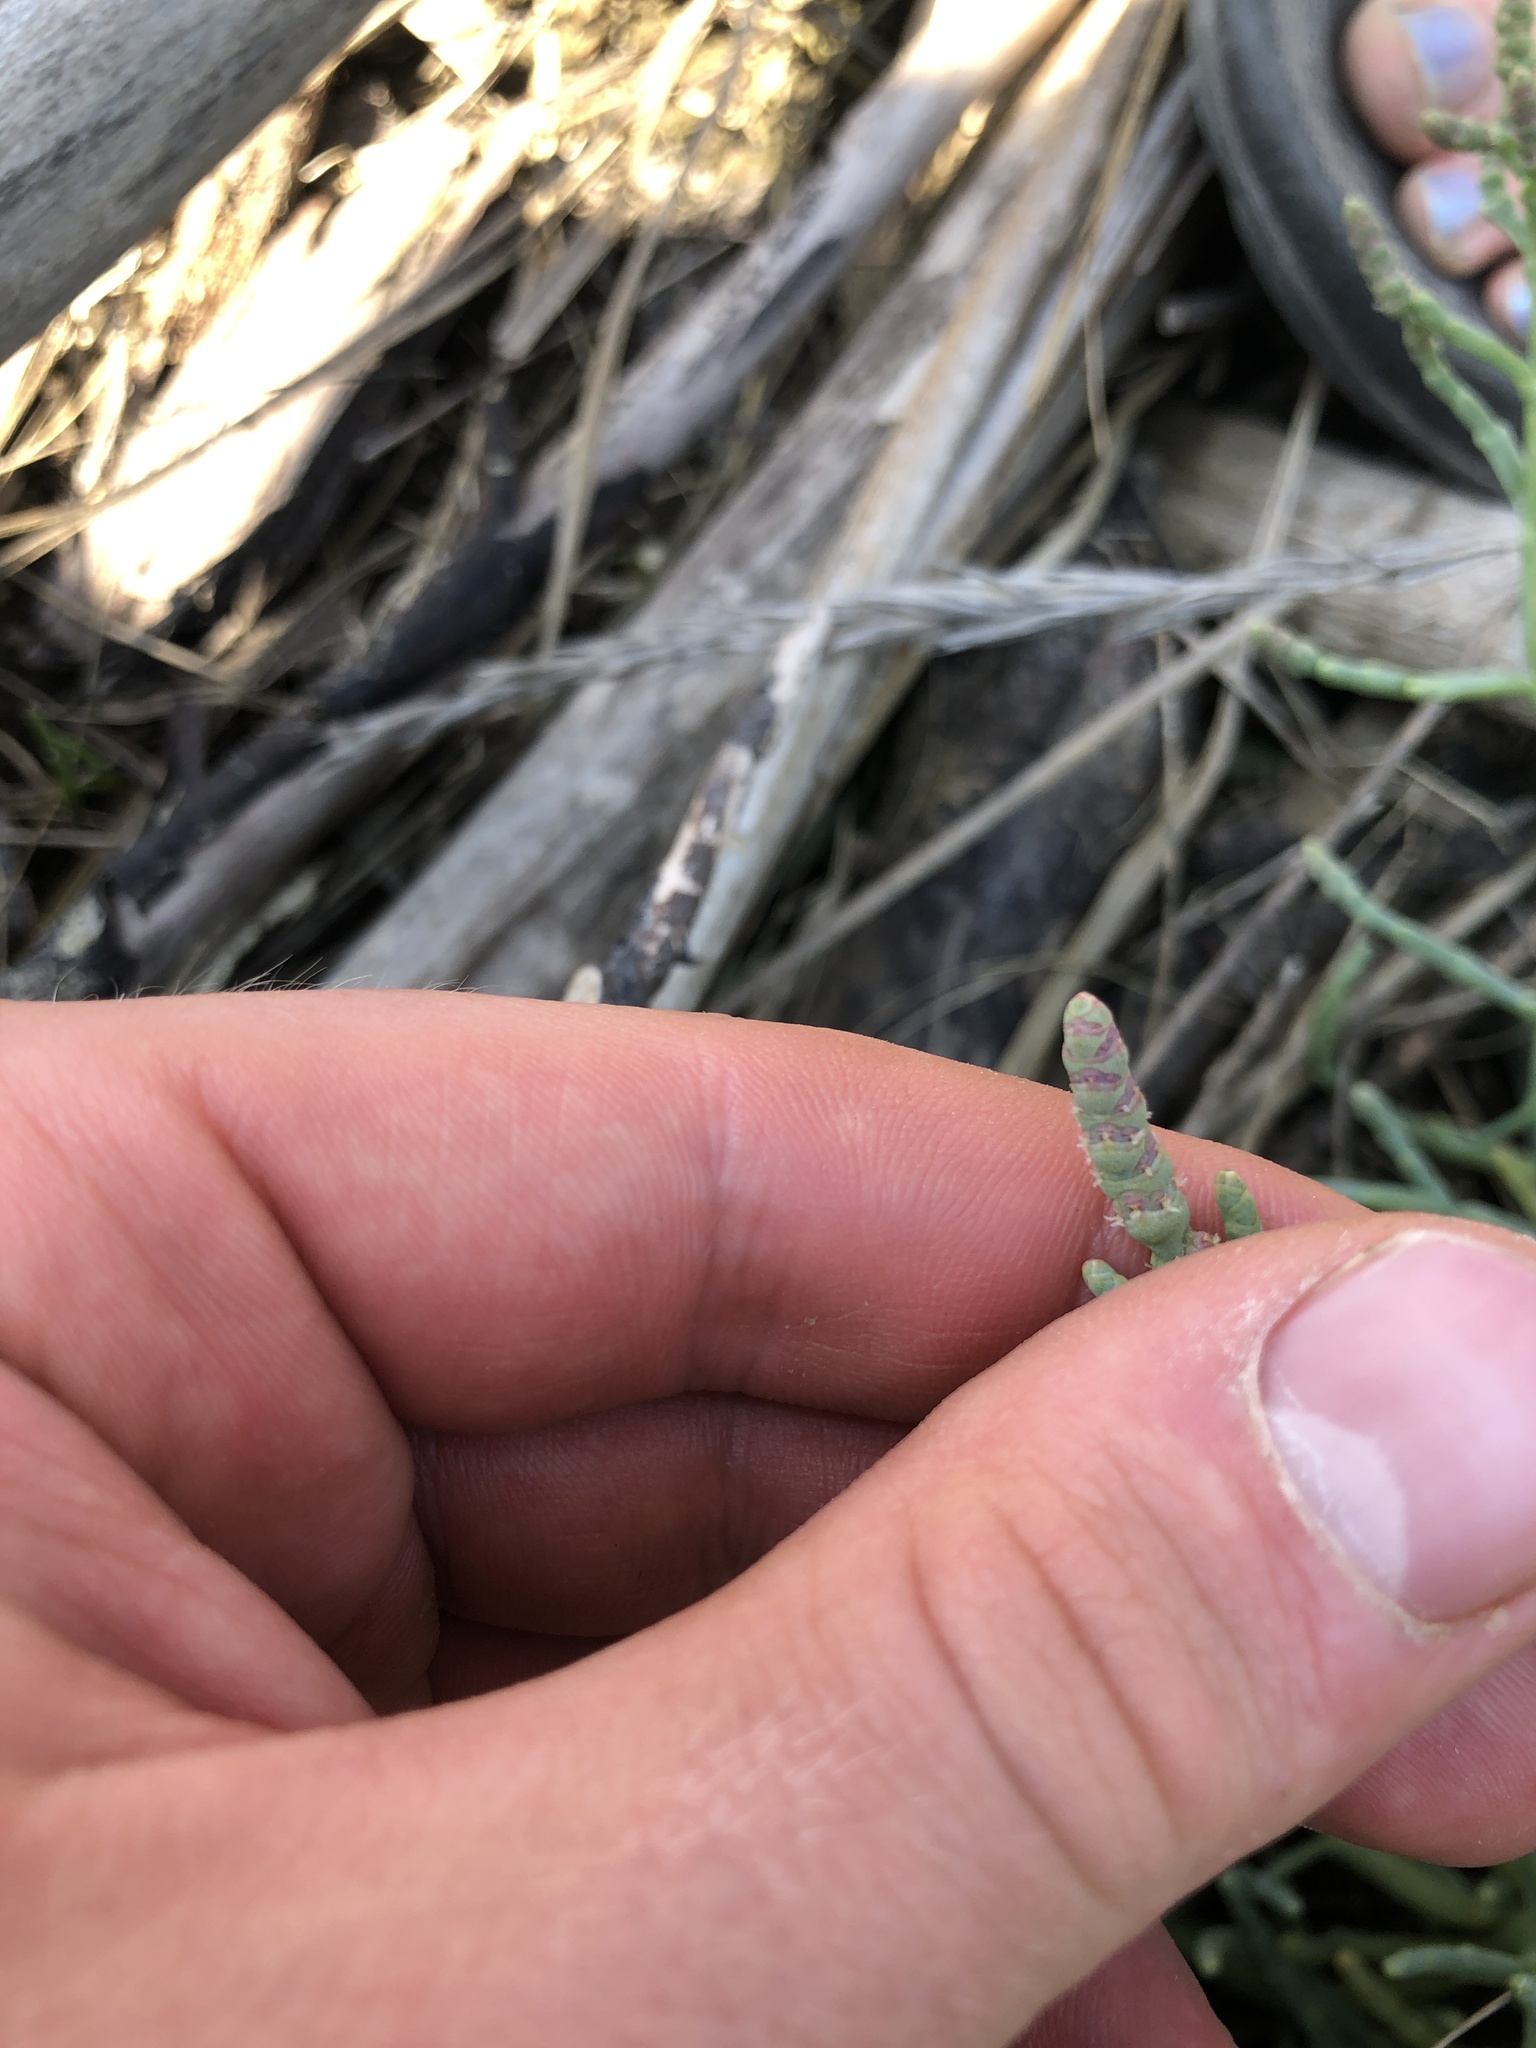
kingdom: Plantae
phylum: Tracheophyta
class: Magnoliopsida
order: Caryophyllales
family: Amaranthaceae
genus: Salicornia
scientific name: Salicornia pacifica
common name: Pacific glasswort
